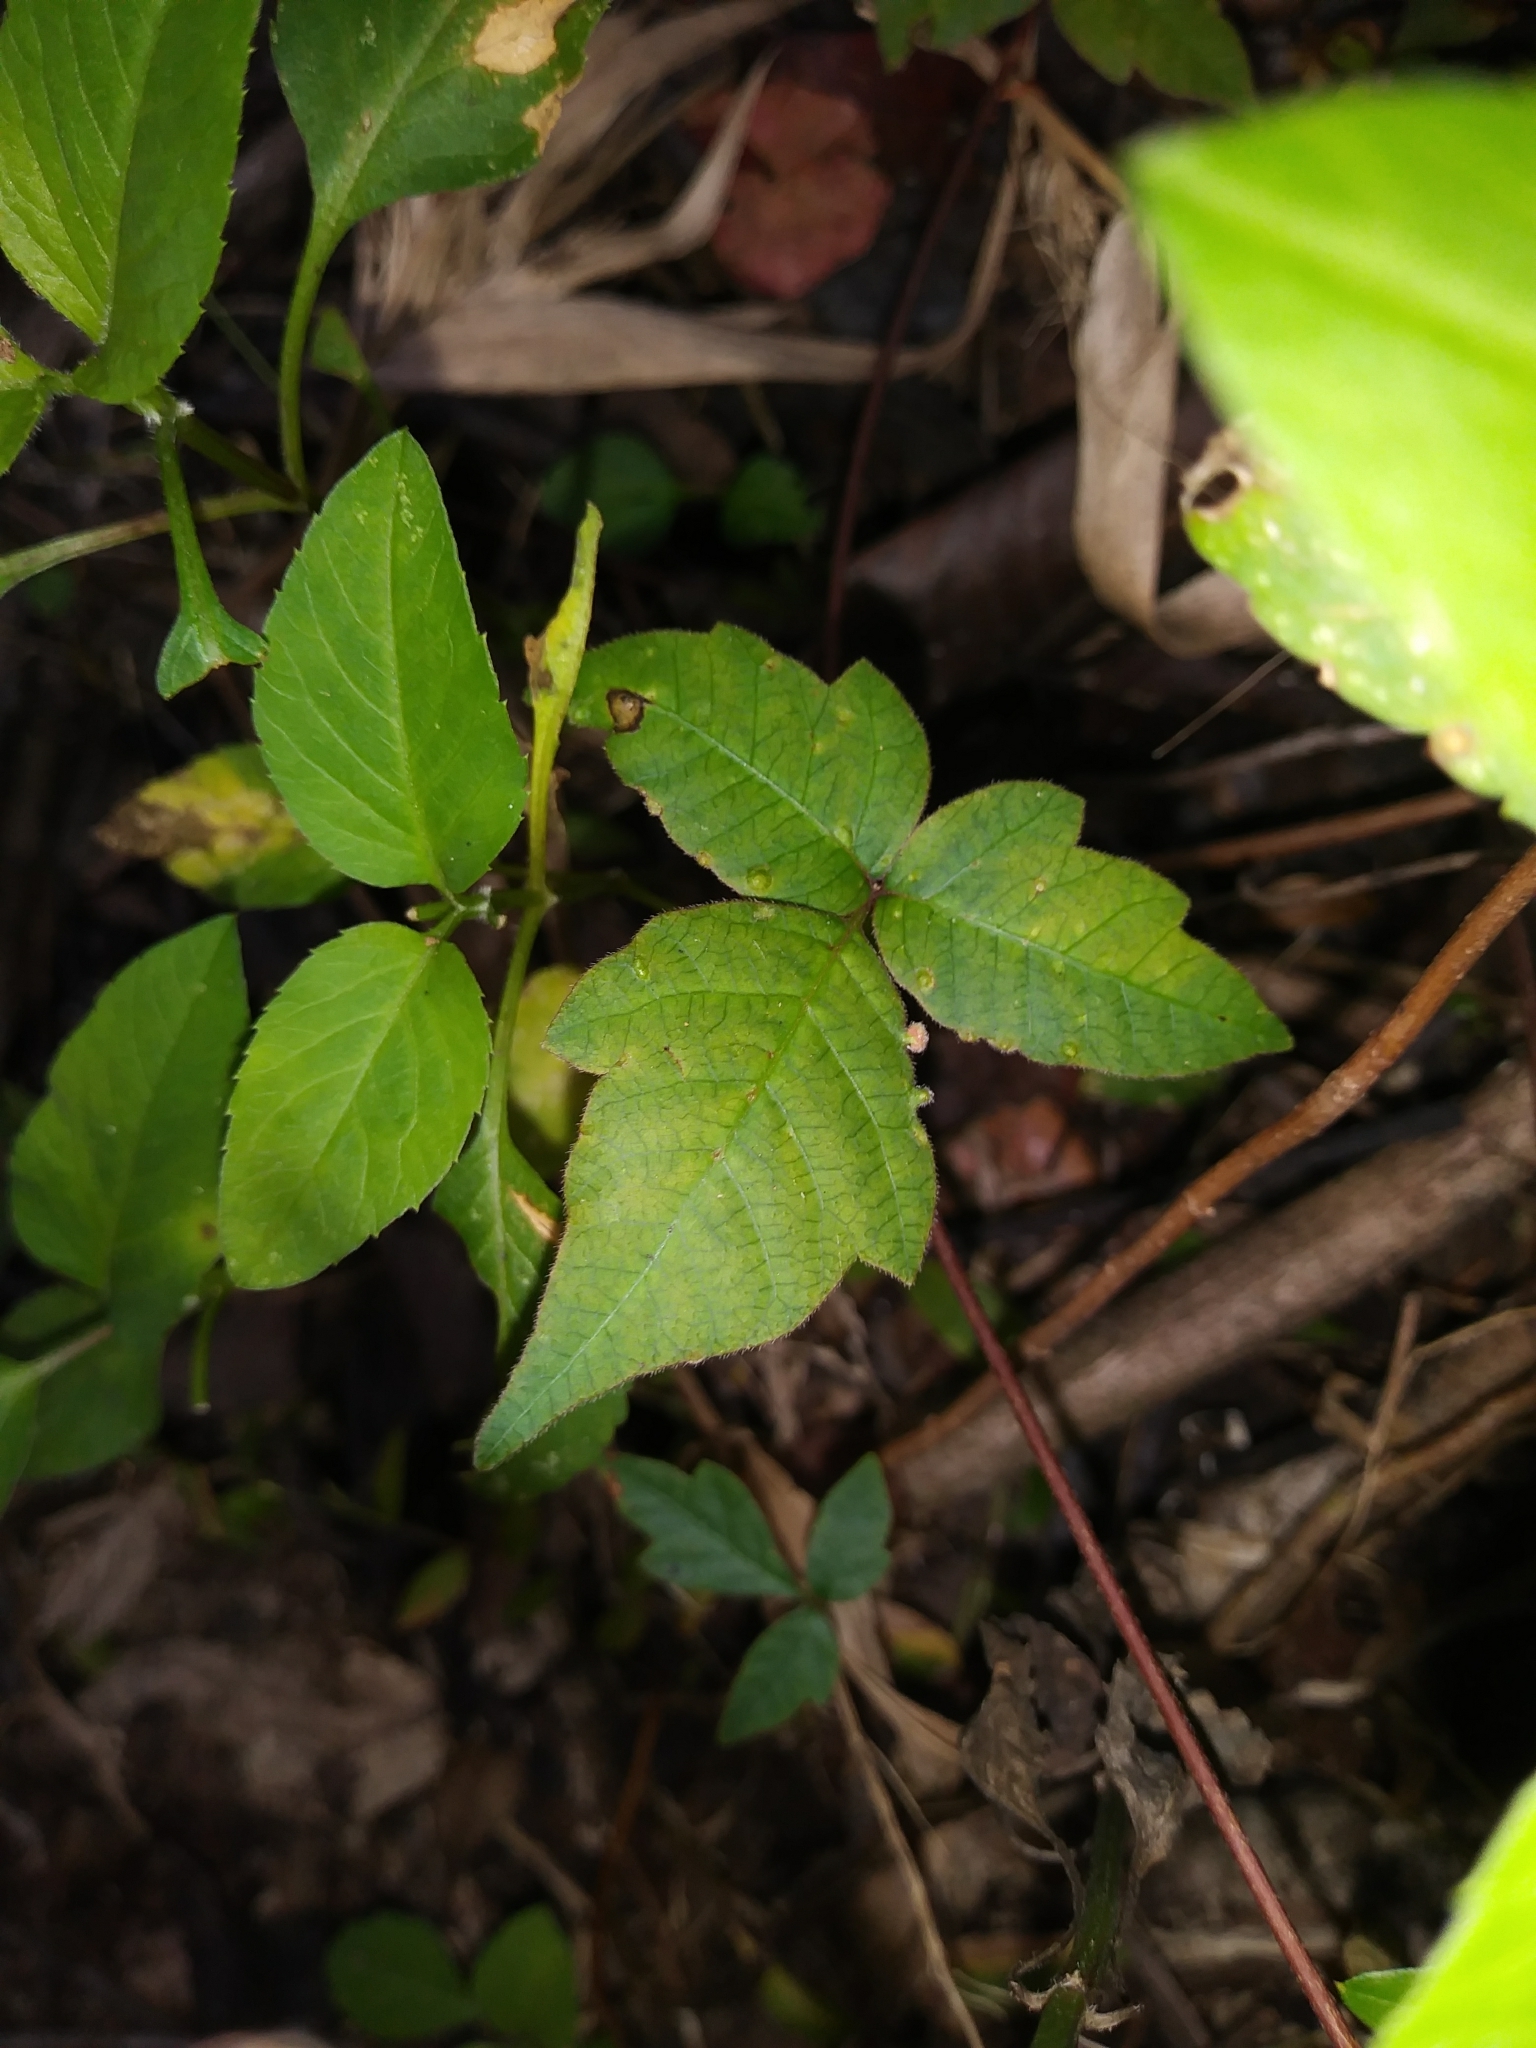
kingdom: Plantae
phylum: Tracheophyta
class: Magnoliopsida
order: Sapindales
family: Anacardiaceae
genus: Toxicodendron
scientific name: Toxicodendron radicans
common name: Poison ivy
